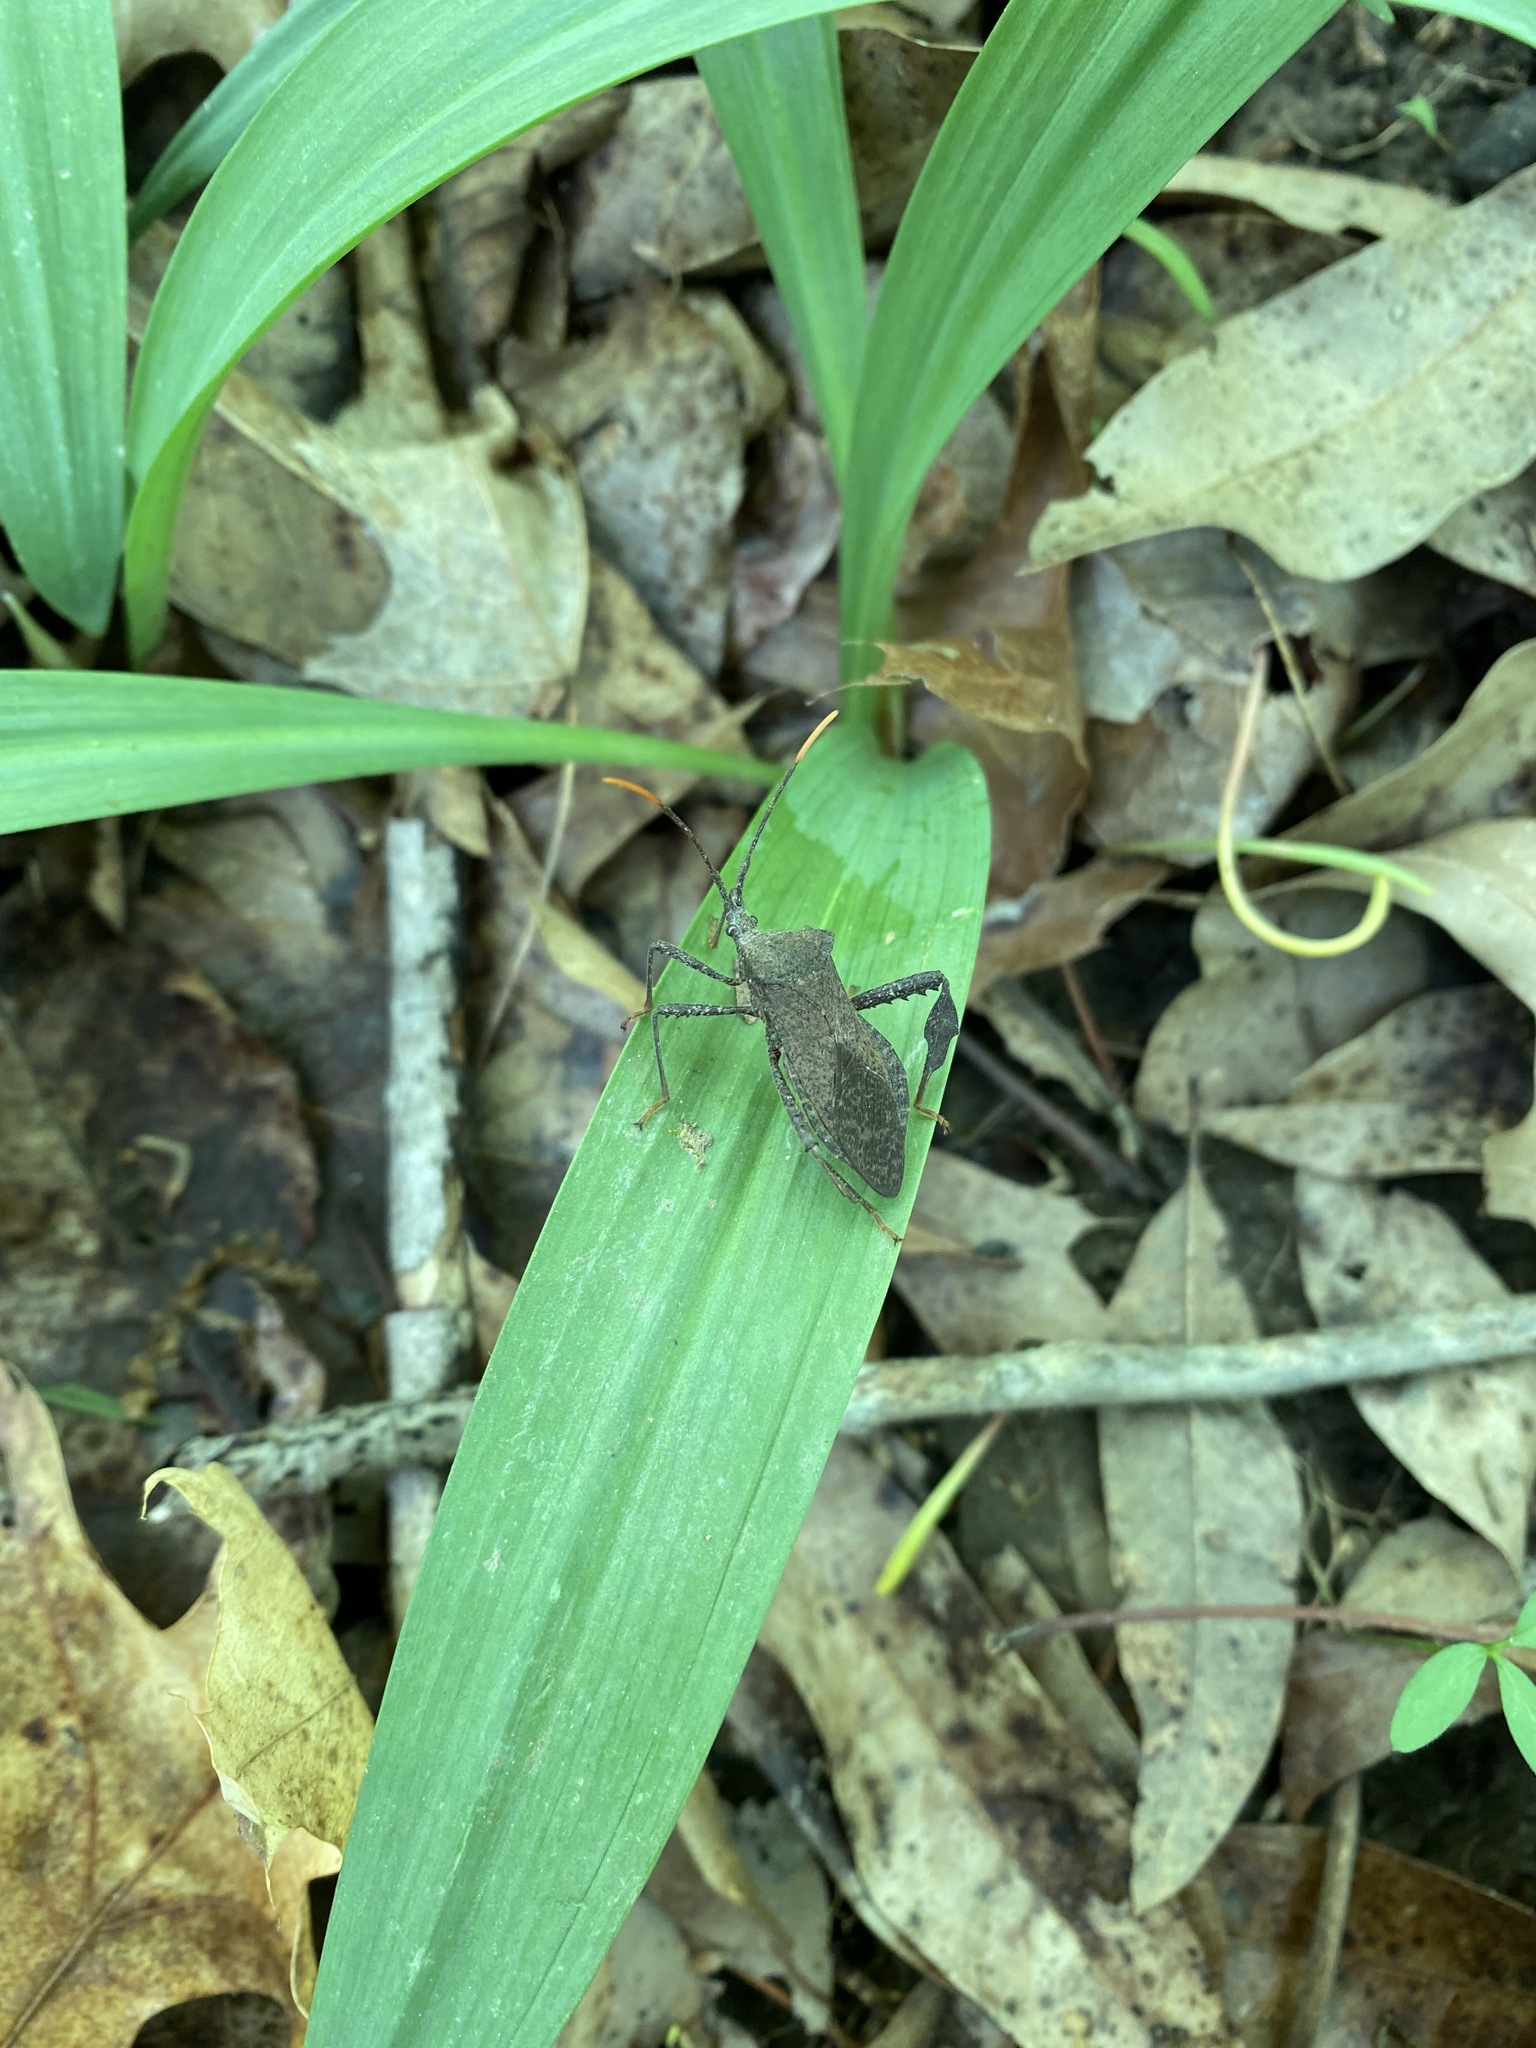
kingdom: Animalia
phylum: Arthropoda
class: Insecta
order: Hemiptera
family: Coreidae
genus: Acanthocephala
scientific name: Acanthocephala terminalis
